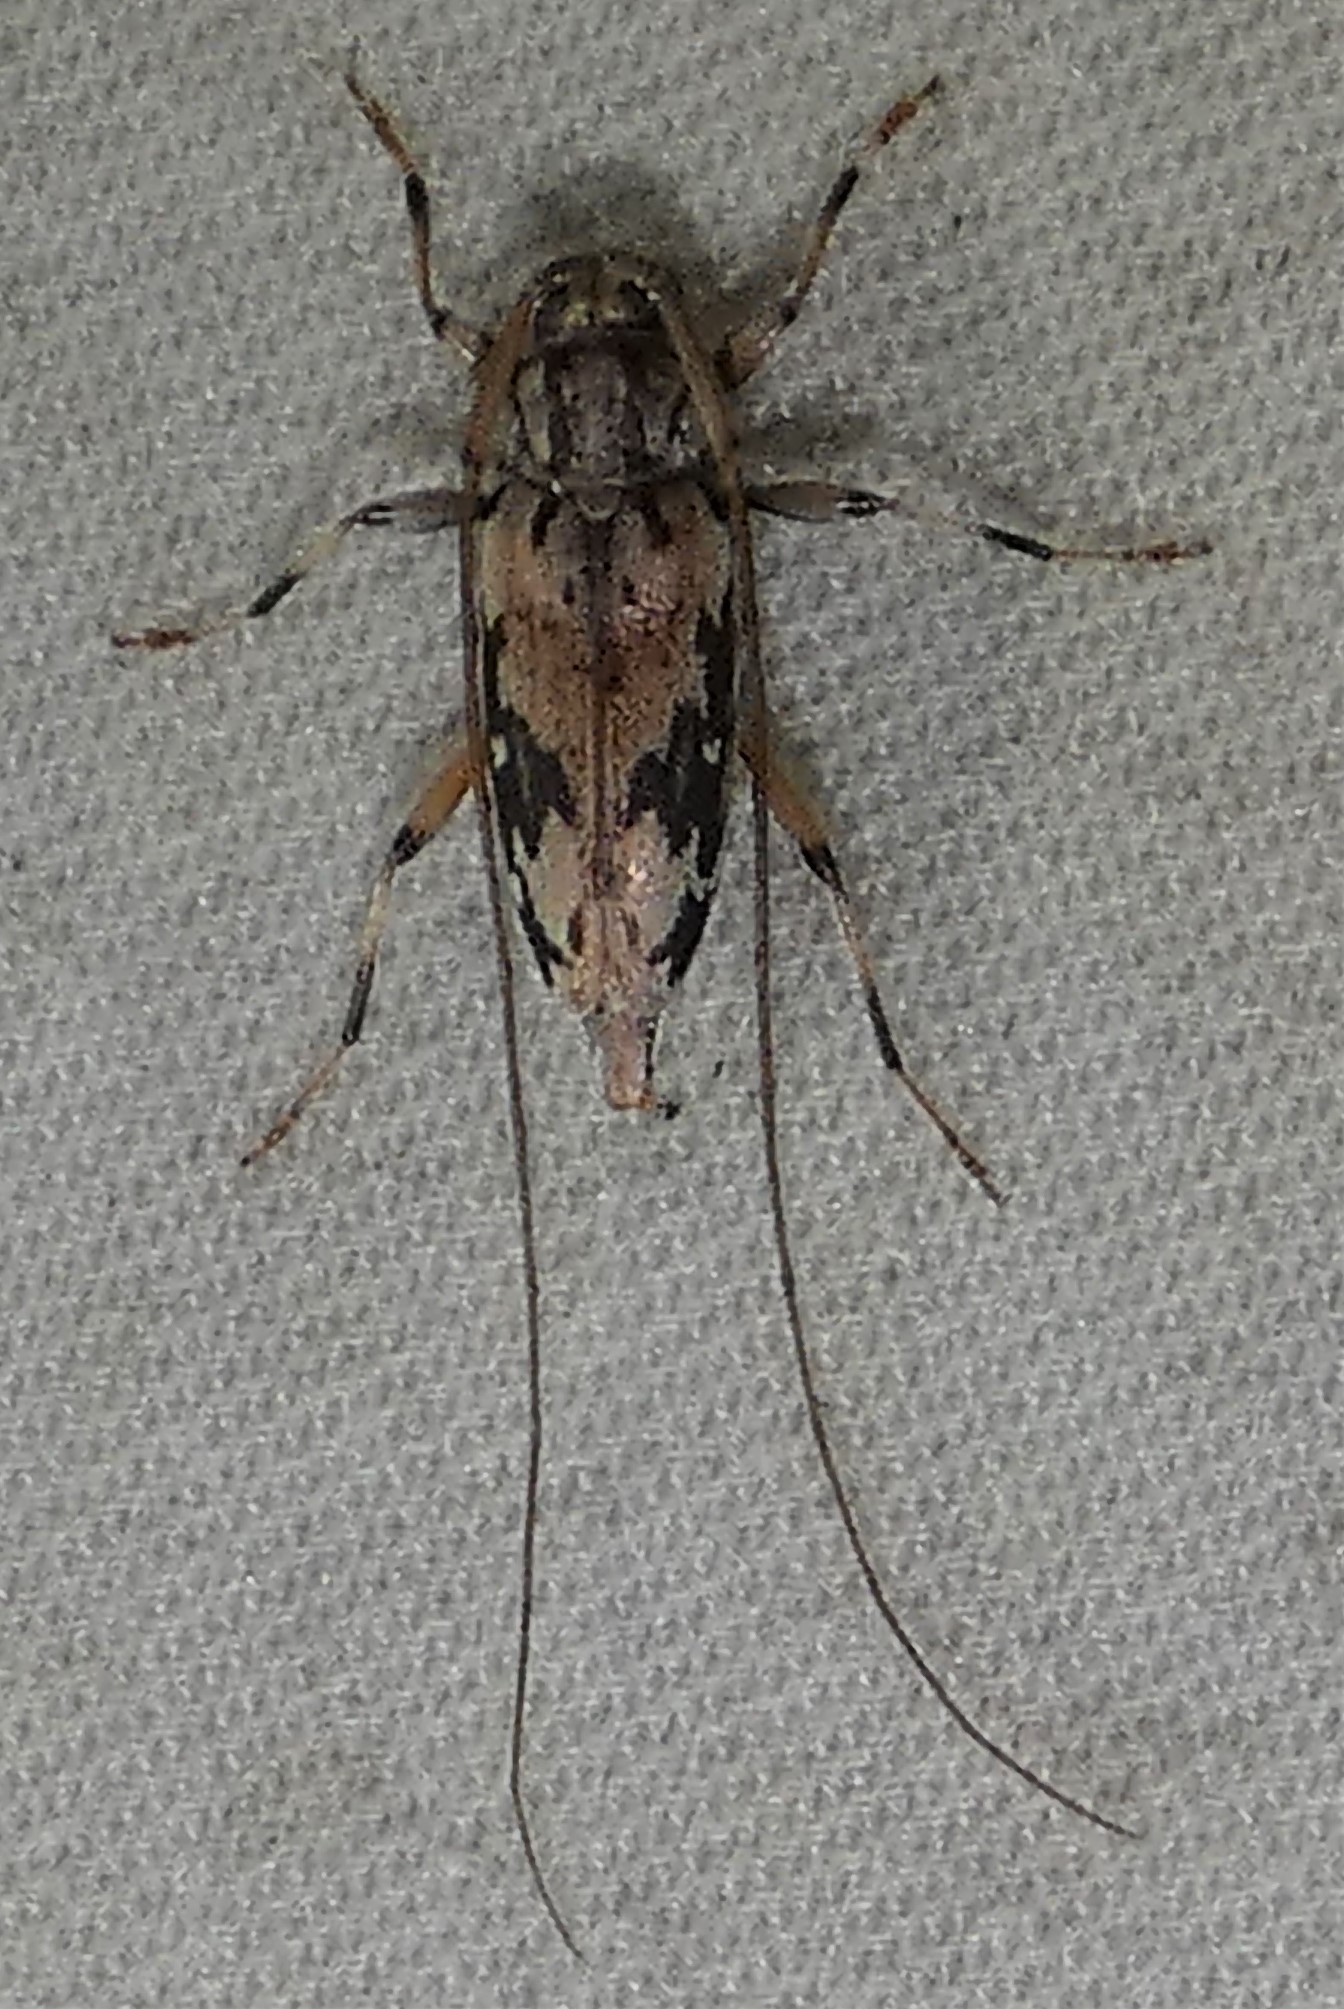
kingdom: Animalia
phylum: Arthropoda
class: Insecta
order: Coleoptera
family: Cerambycidae
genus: Lepturges
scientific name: Lepturges angulatus
